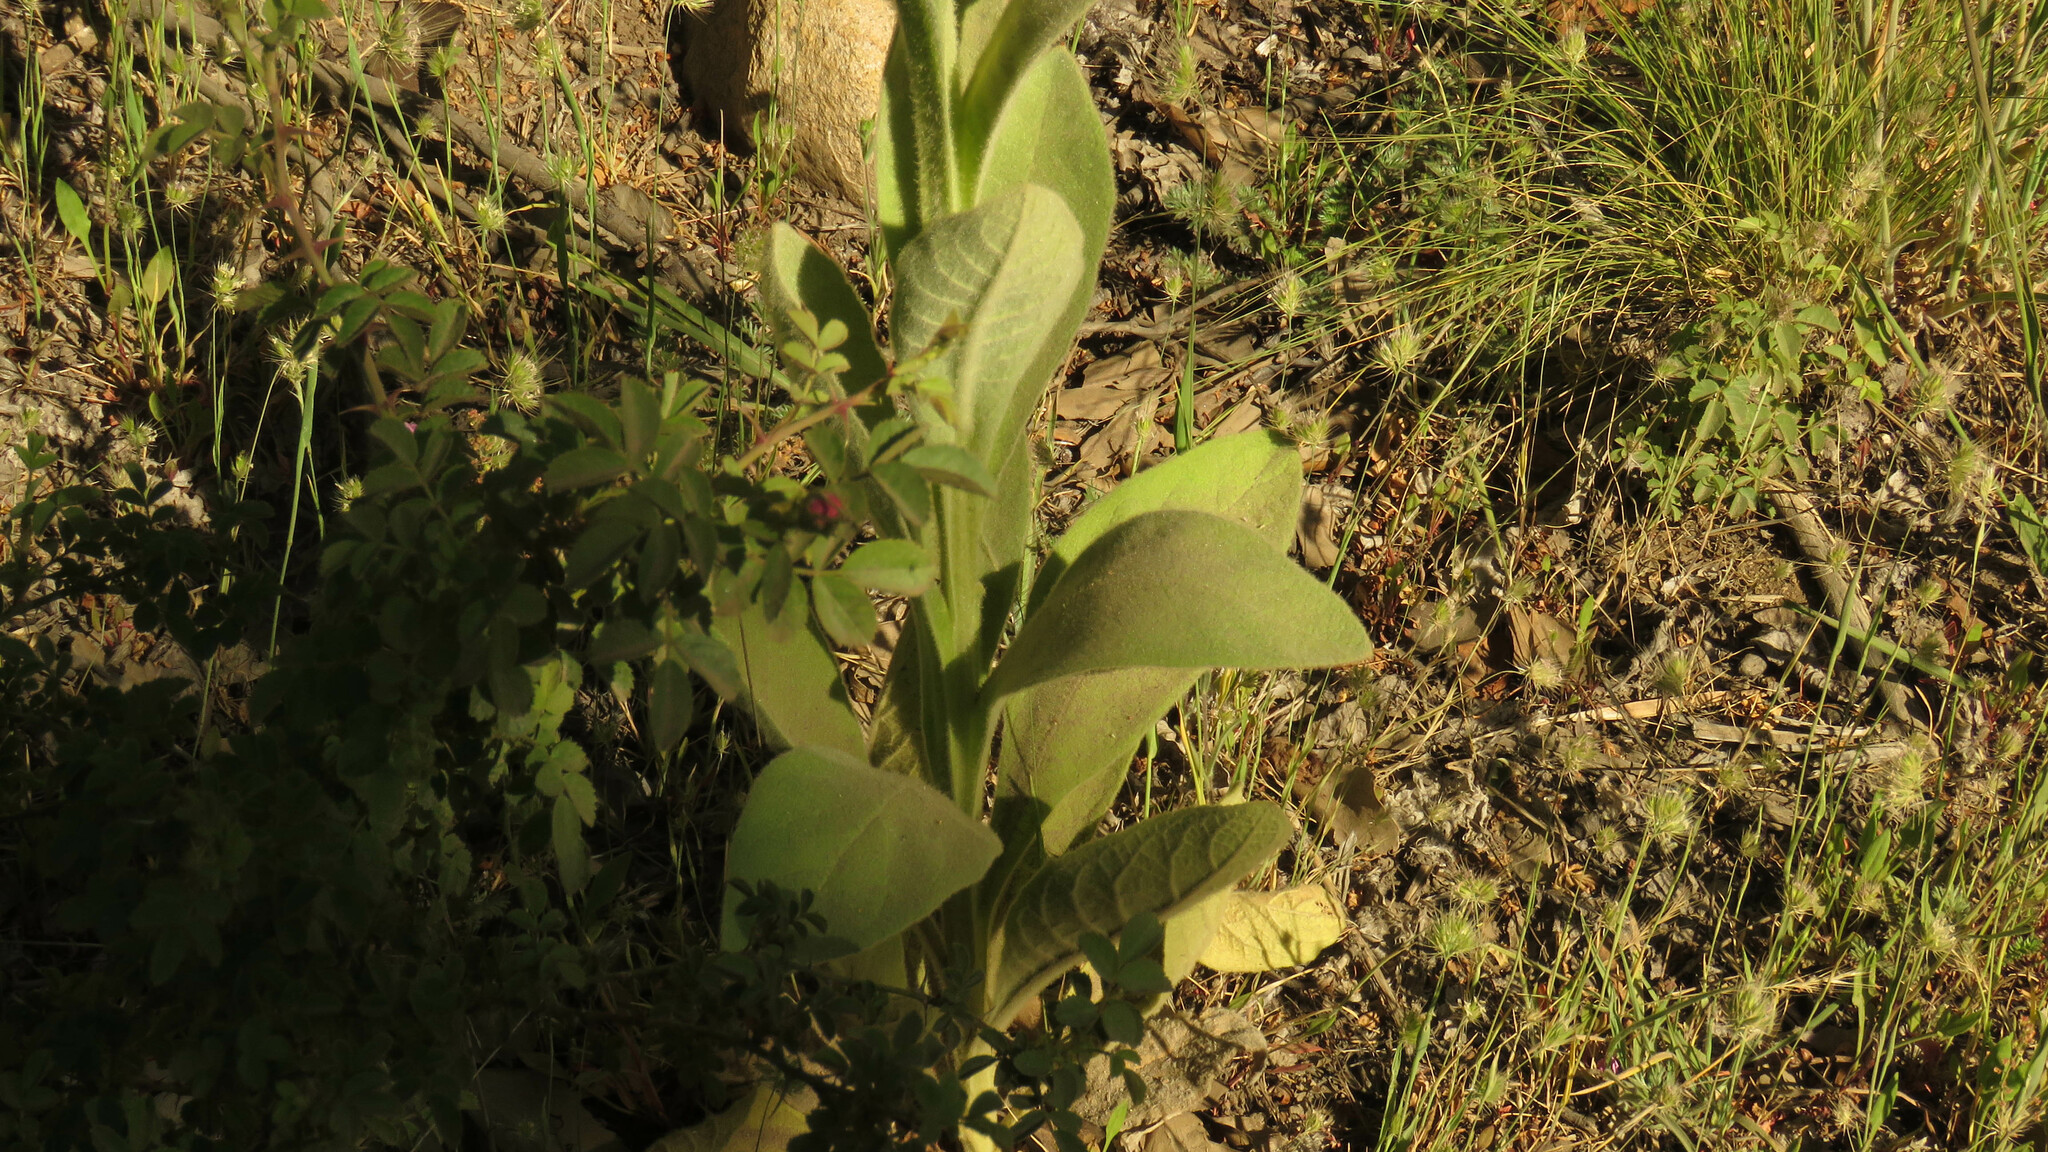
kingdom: Plantae
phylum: Tracheophyta
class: Magnoliopsida
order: Lamiales
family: Scrophulariaceae
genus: Verbascum
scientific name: Verbascum thapsus
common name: Common mullein
